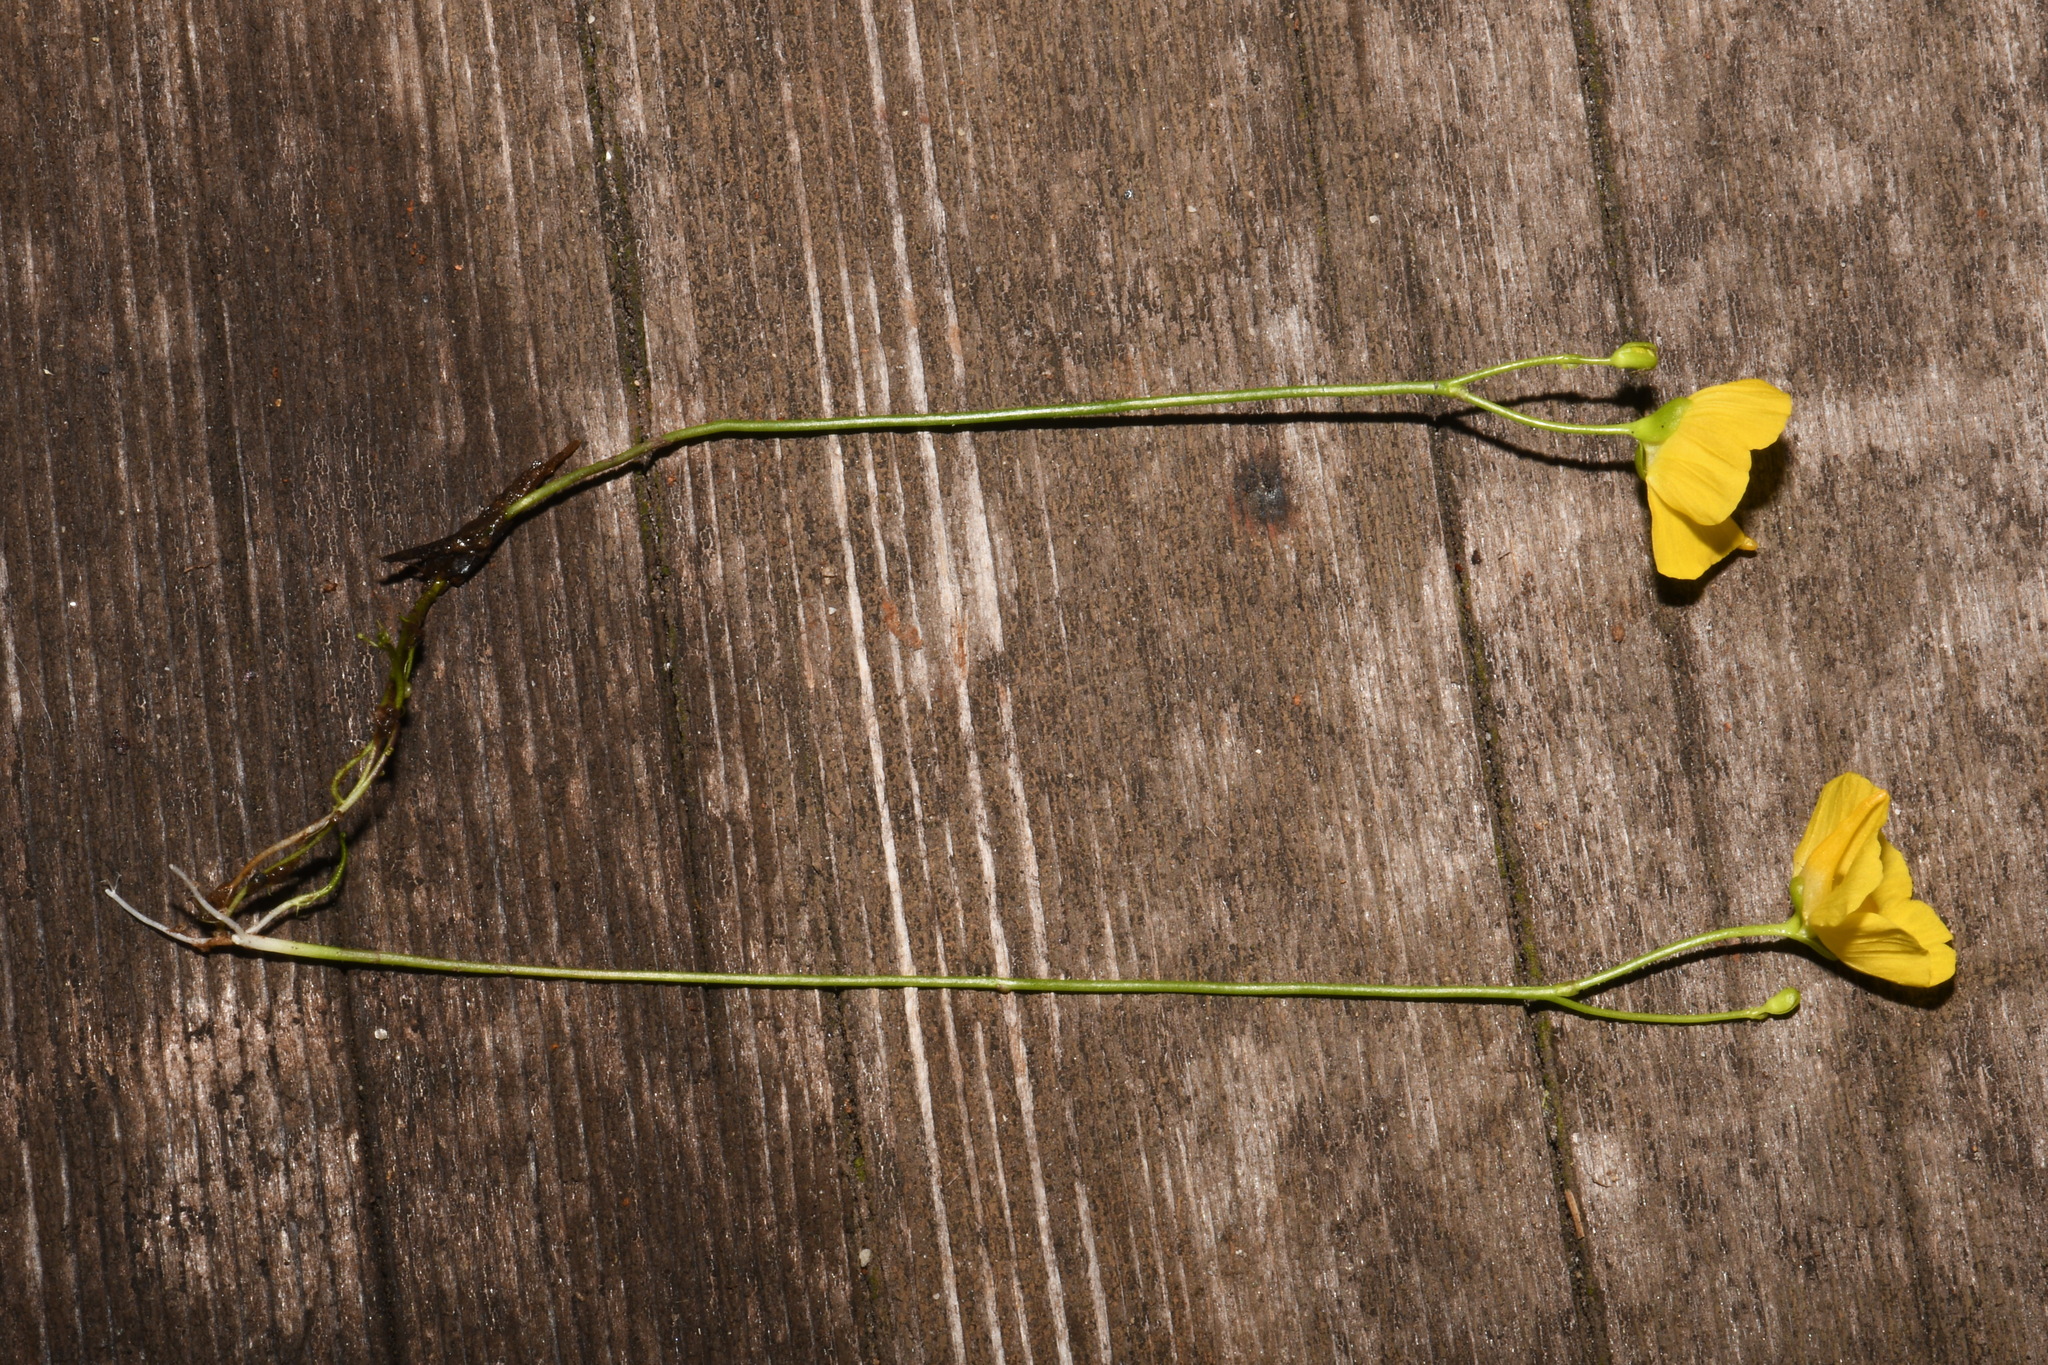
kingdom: Plantae
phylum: Tracheophyta
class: Magnoliopsida
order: Lamiales
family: Lentibulariaceae
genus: Utricularia
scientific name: Utricularia gibba
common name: Humped bladderwort
